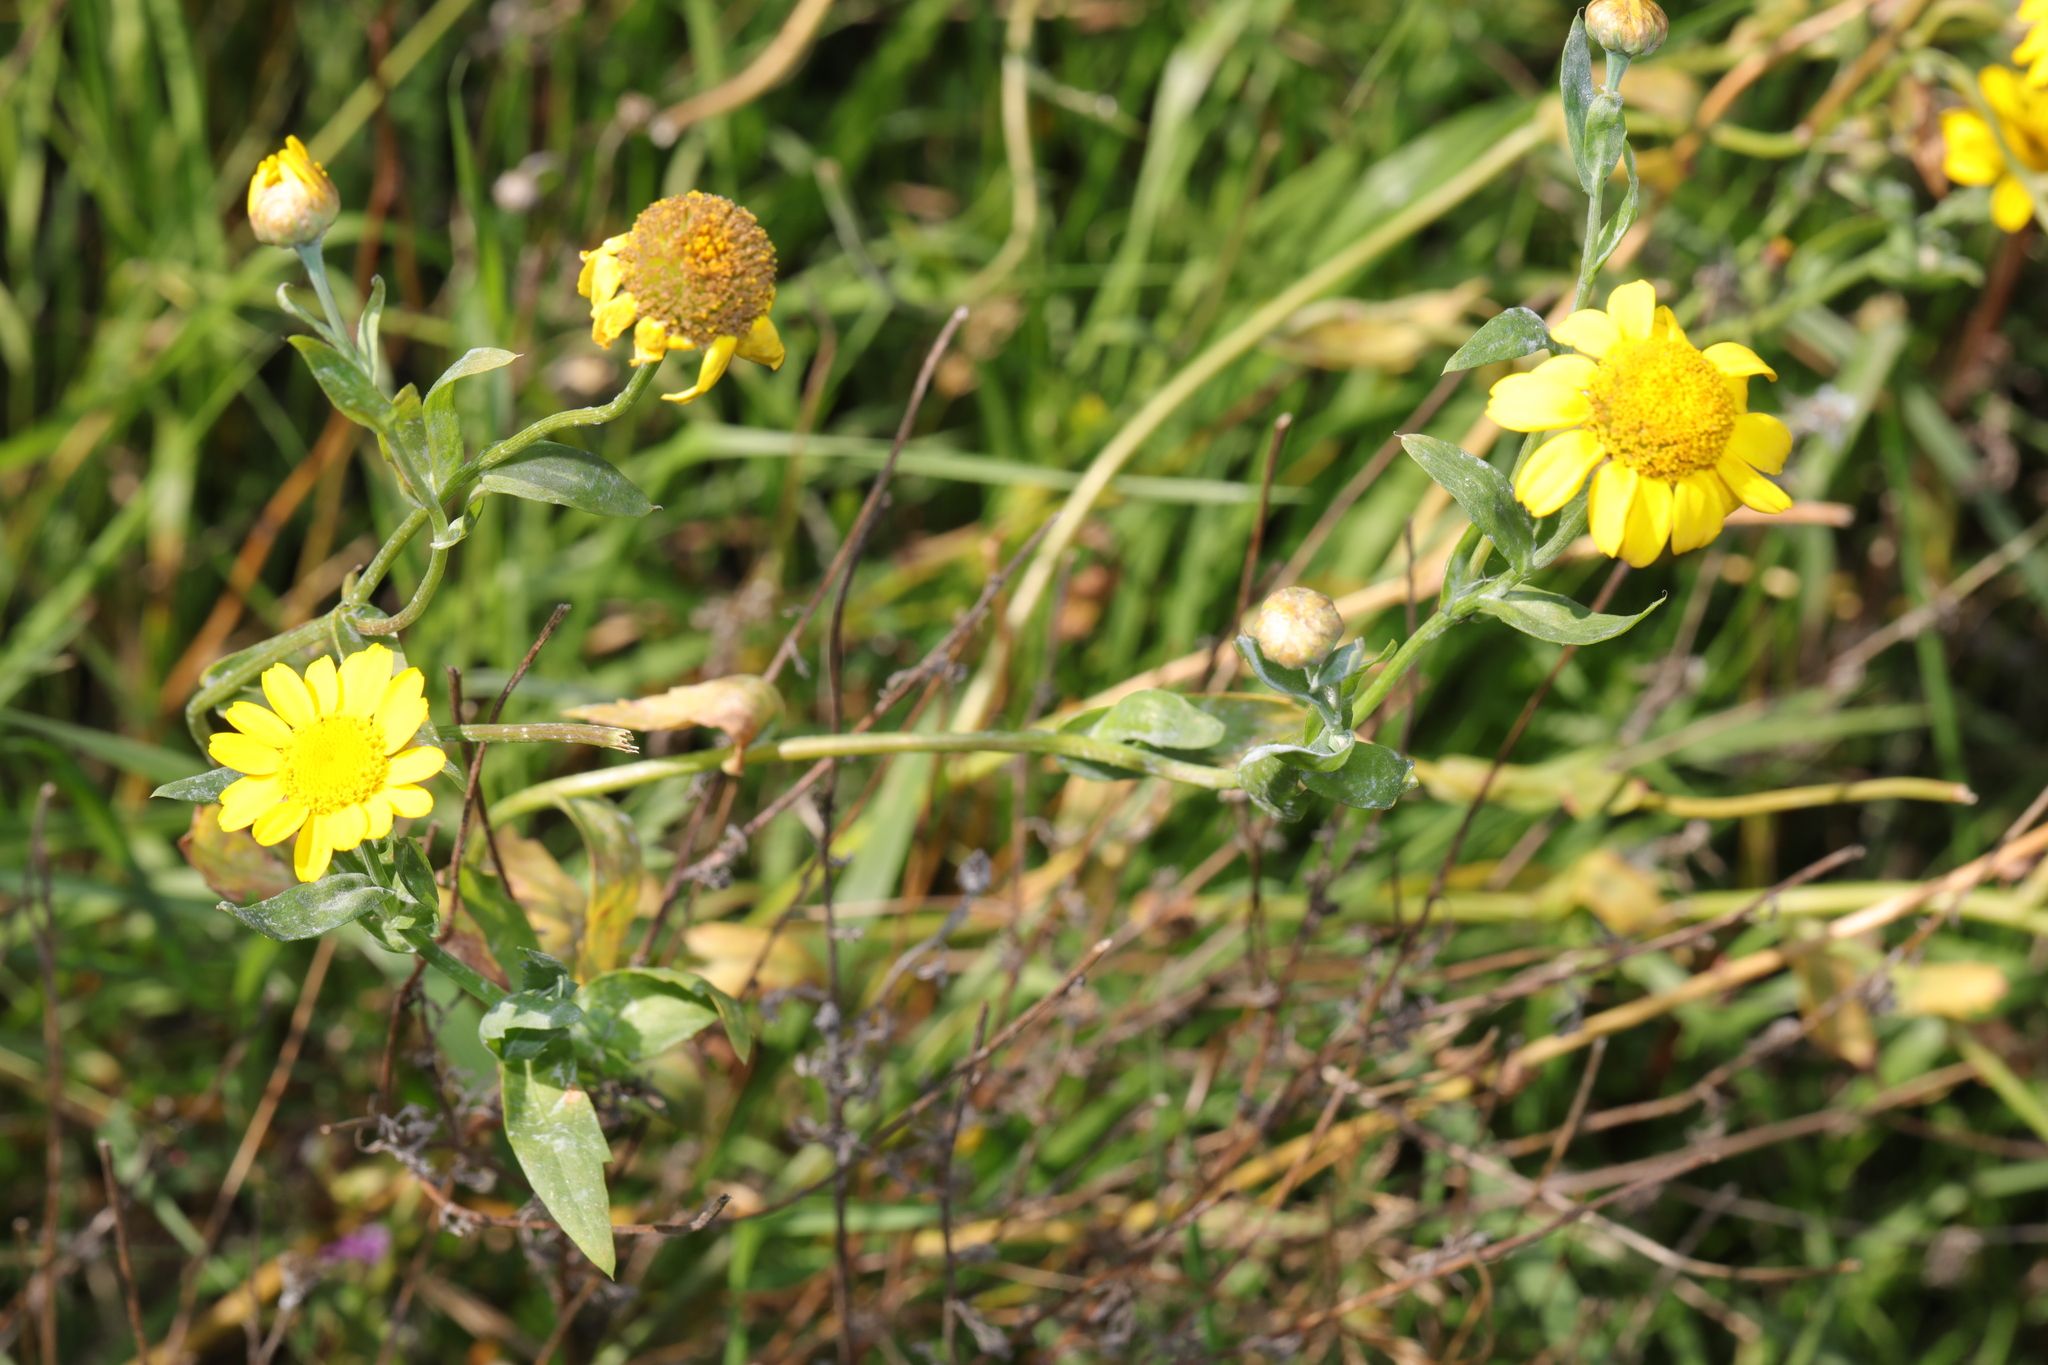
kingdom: Plantae
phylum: Tracheophyta
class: Magnoliopsida
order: Asterales
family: Asteraceae
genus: Glebionis
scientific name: Glebionis segetum
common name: Corndaisy
